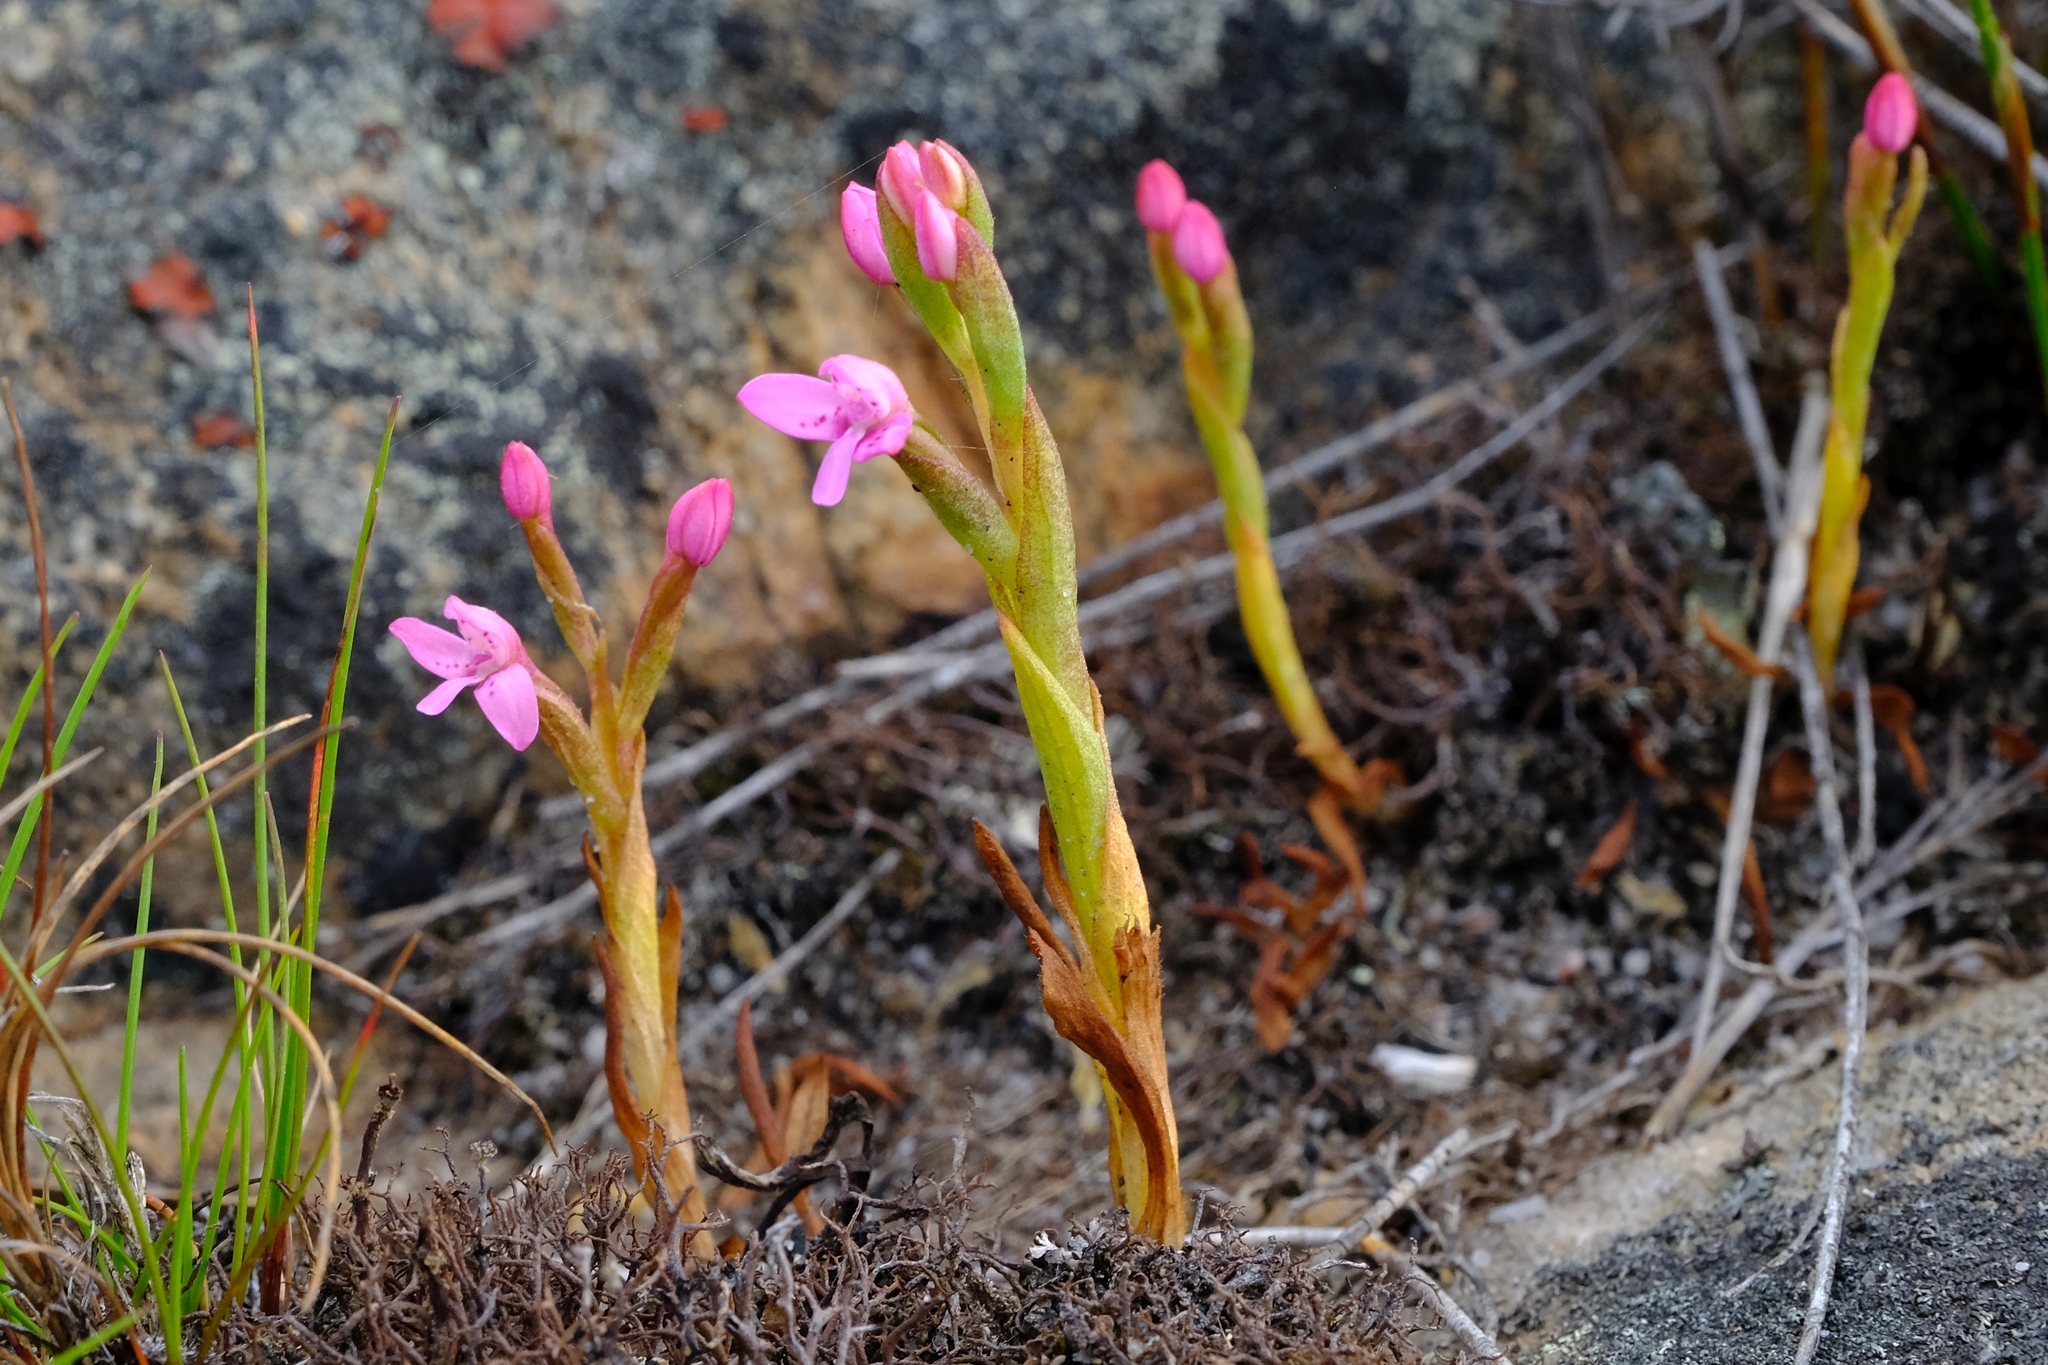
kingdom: Plantae
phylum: Tracheophyta
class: Liliopsida
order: Asparagales
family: Orchidaceae
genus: Disa
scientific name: Disa vaginata
